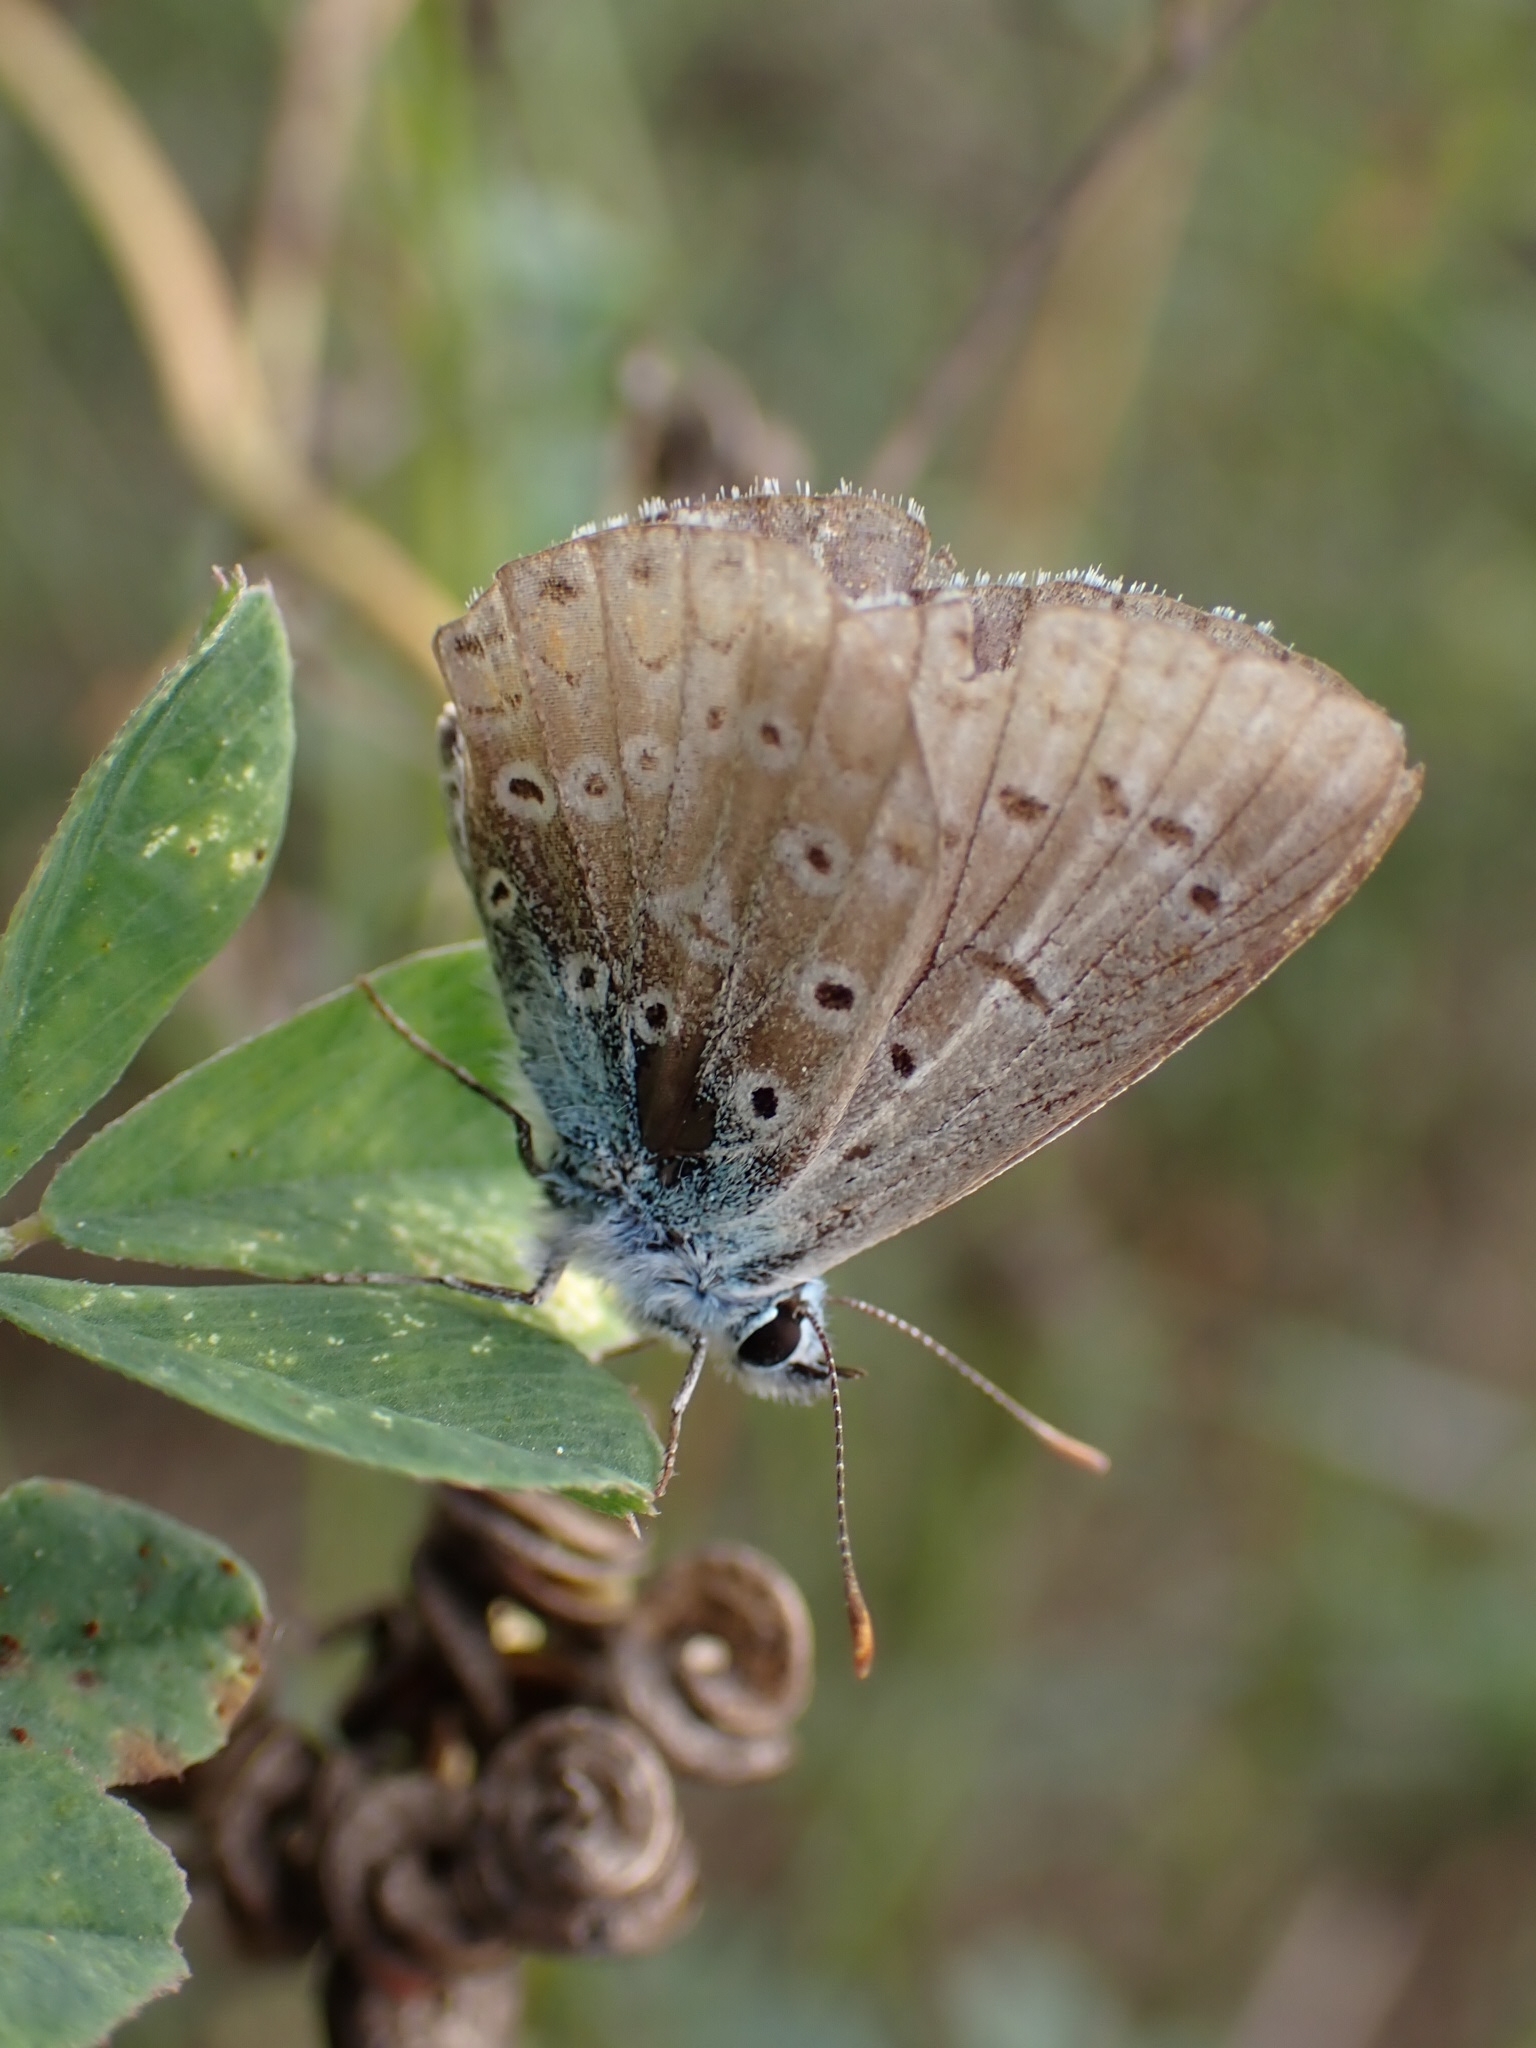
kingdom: Animalia
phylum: Arthropoda
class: Insecta
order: Lepidoptera
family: Lycaenidae
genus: Polyommatus
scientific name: Polyommatus icarus
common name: Common blue
